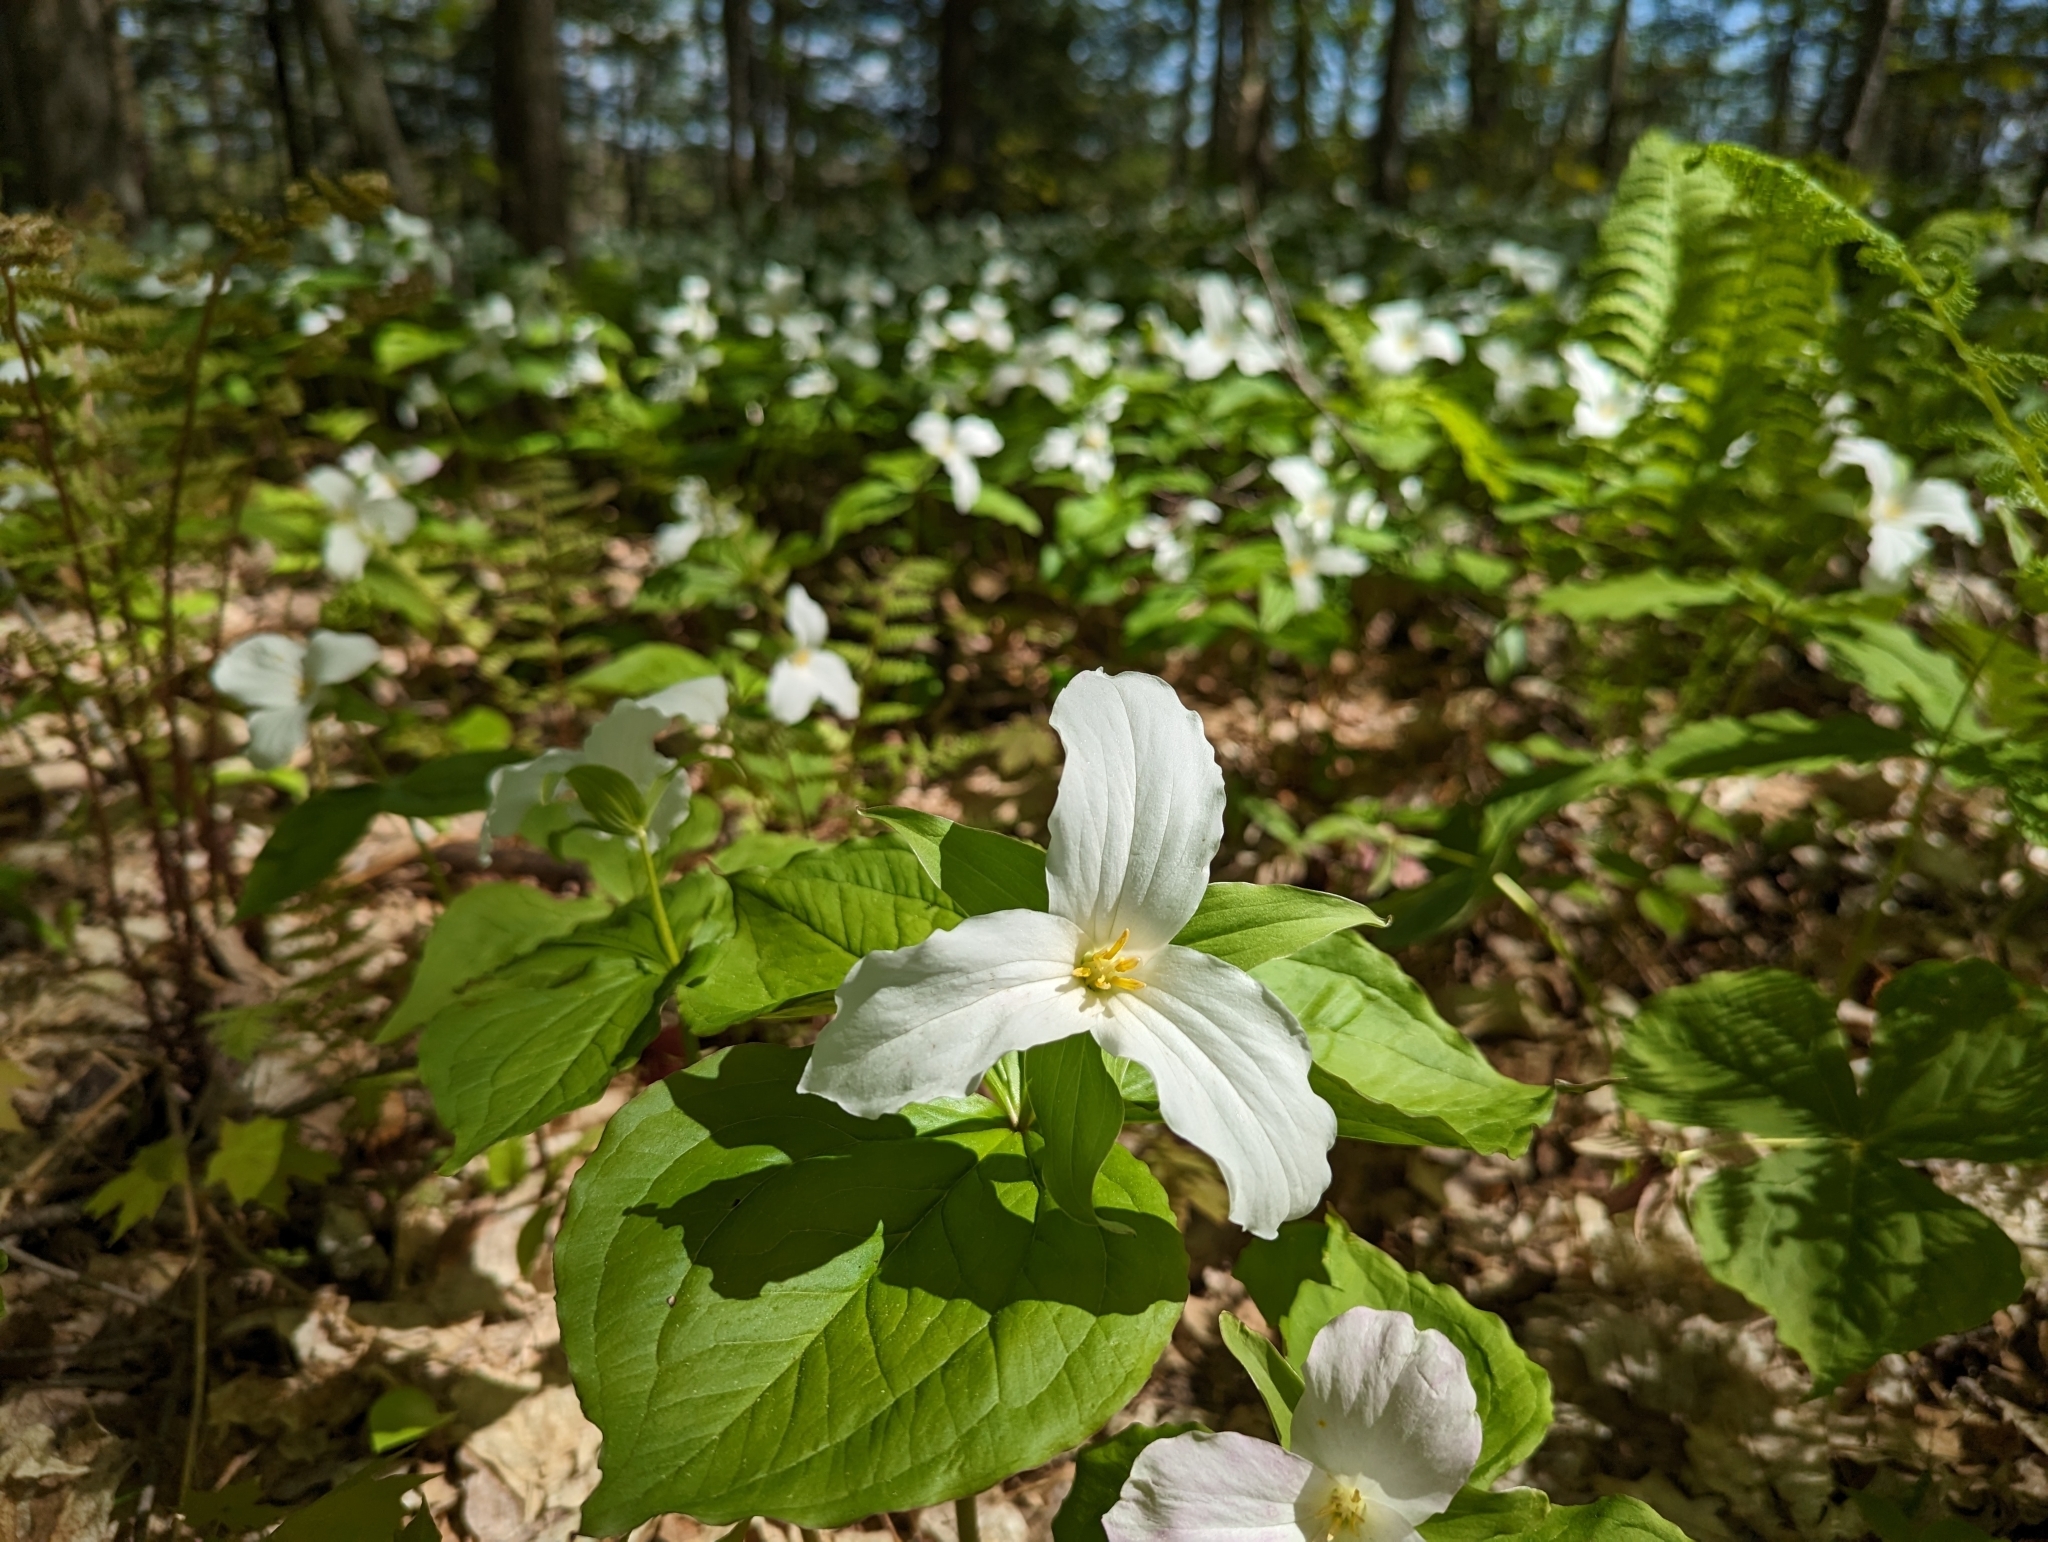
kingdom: Plantae
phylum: Tracheophyta
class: Liliopsida
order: Liliales
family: Melanthiaceae
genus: Trillium
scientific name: Trillium grandiflorum
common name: Great white trillium
